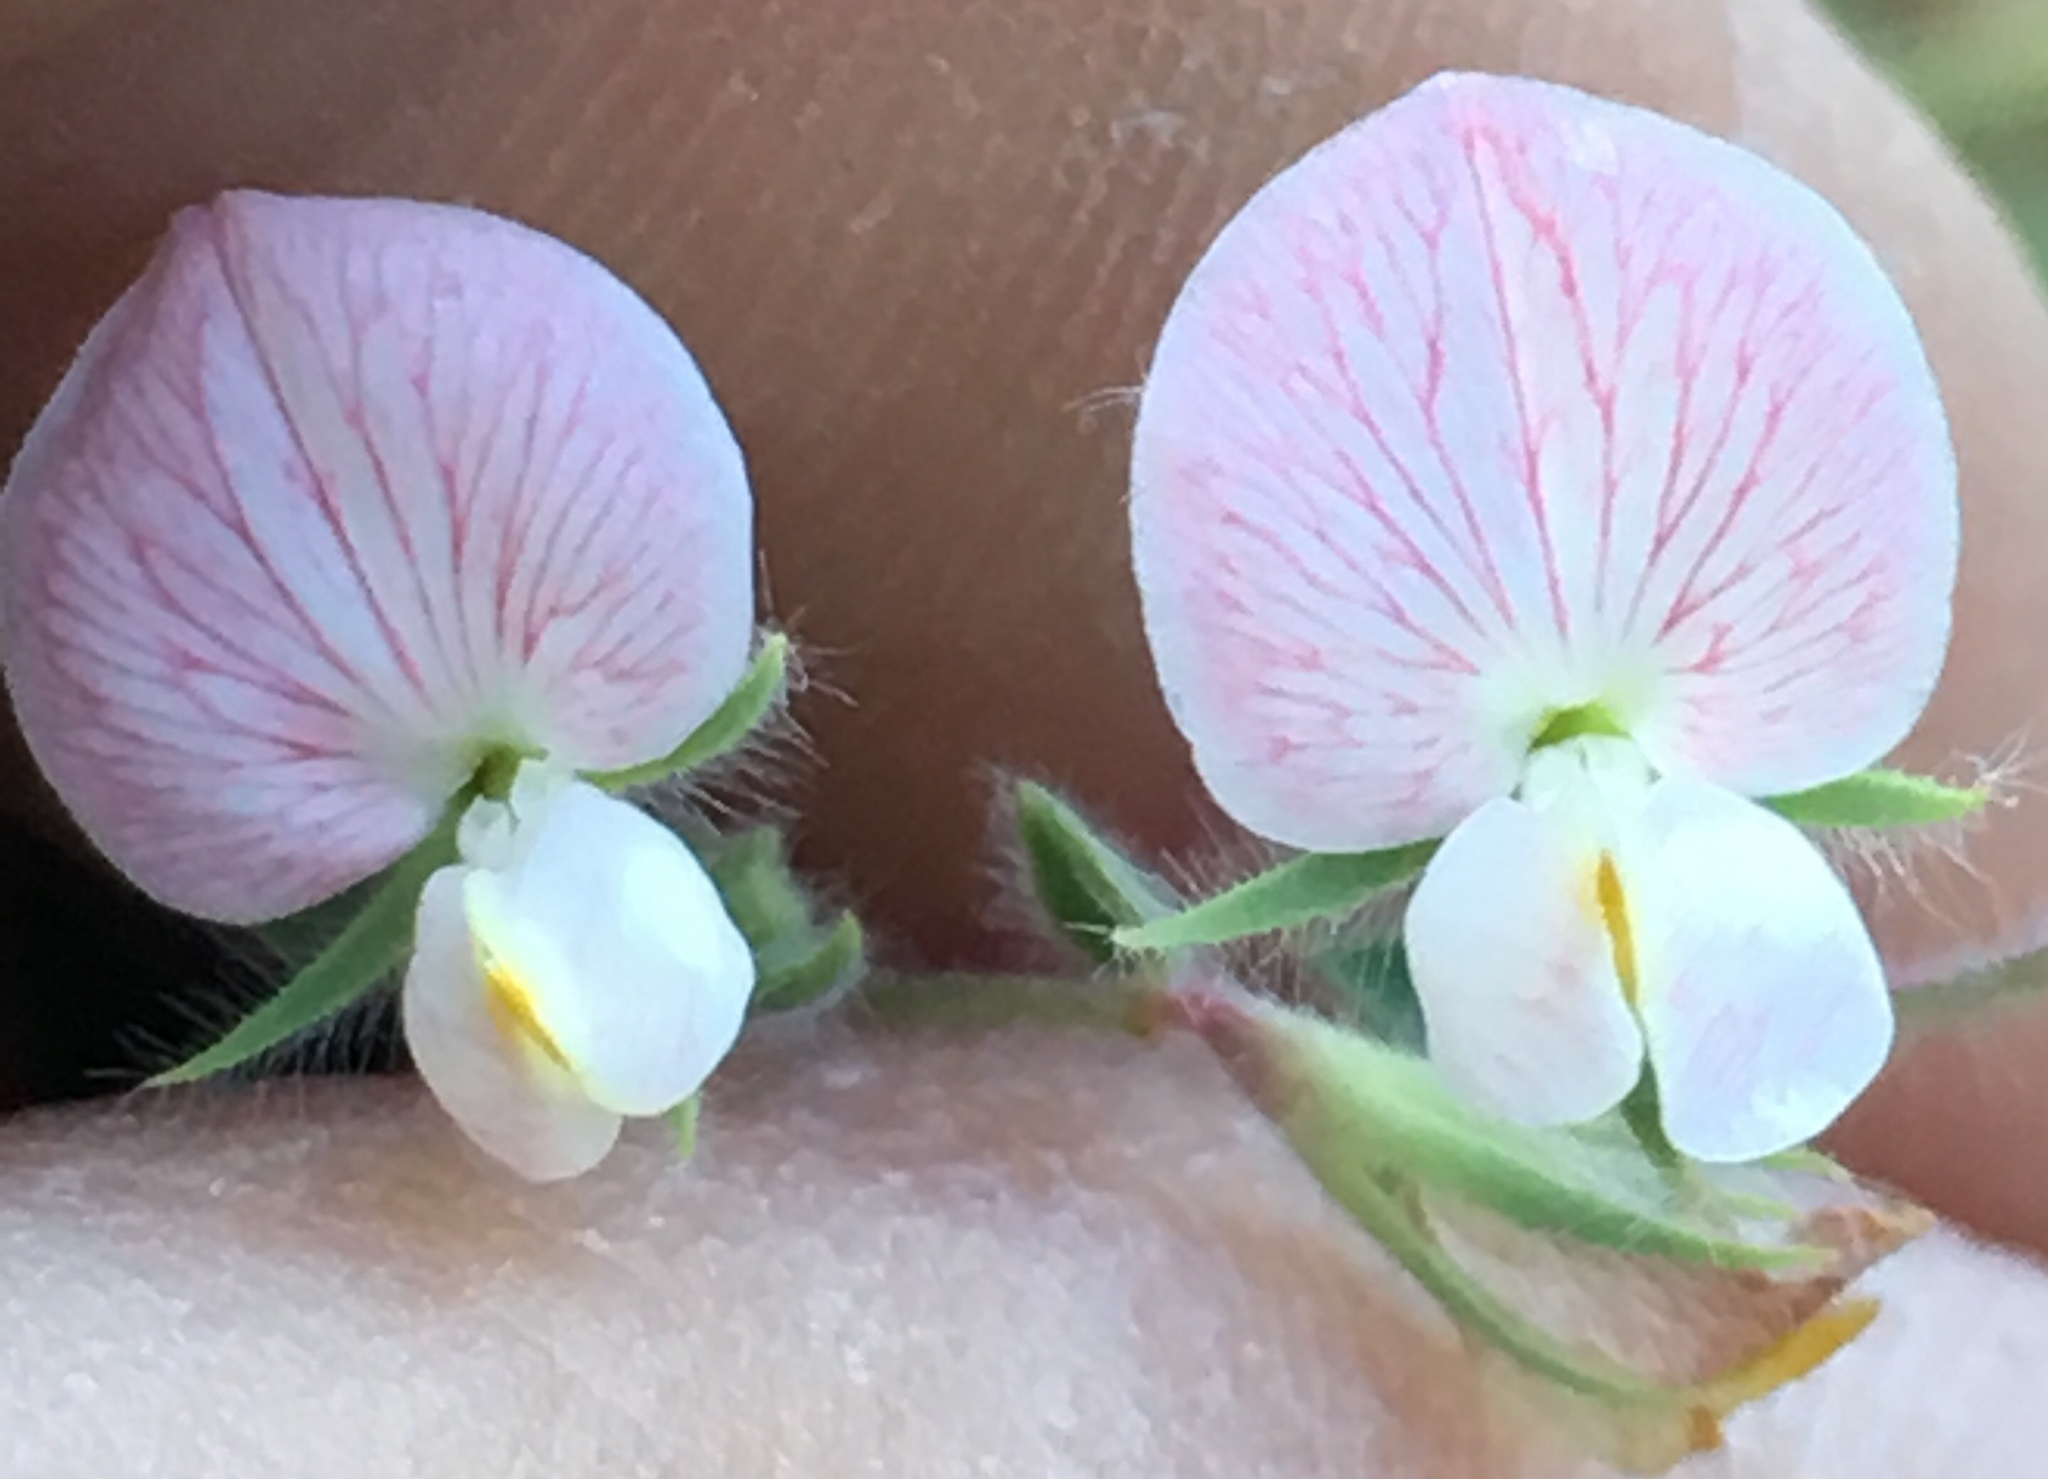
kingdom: Plantae
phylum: Tracheophyta
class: Magnoliopsida
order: Fabales
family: Fabaceae
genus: Acmispon
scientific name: Acmispon americanus
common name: American bird's-foot trefoil
